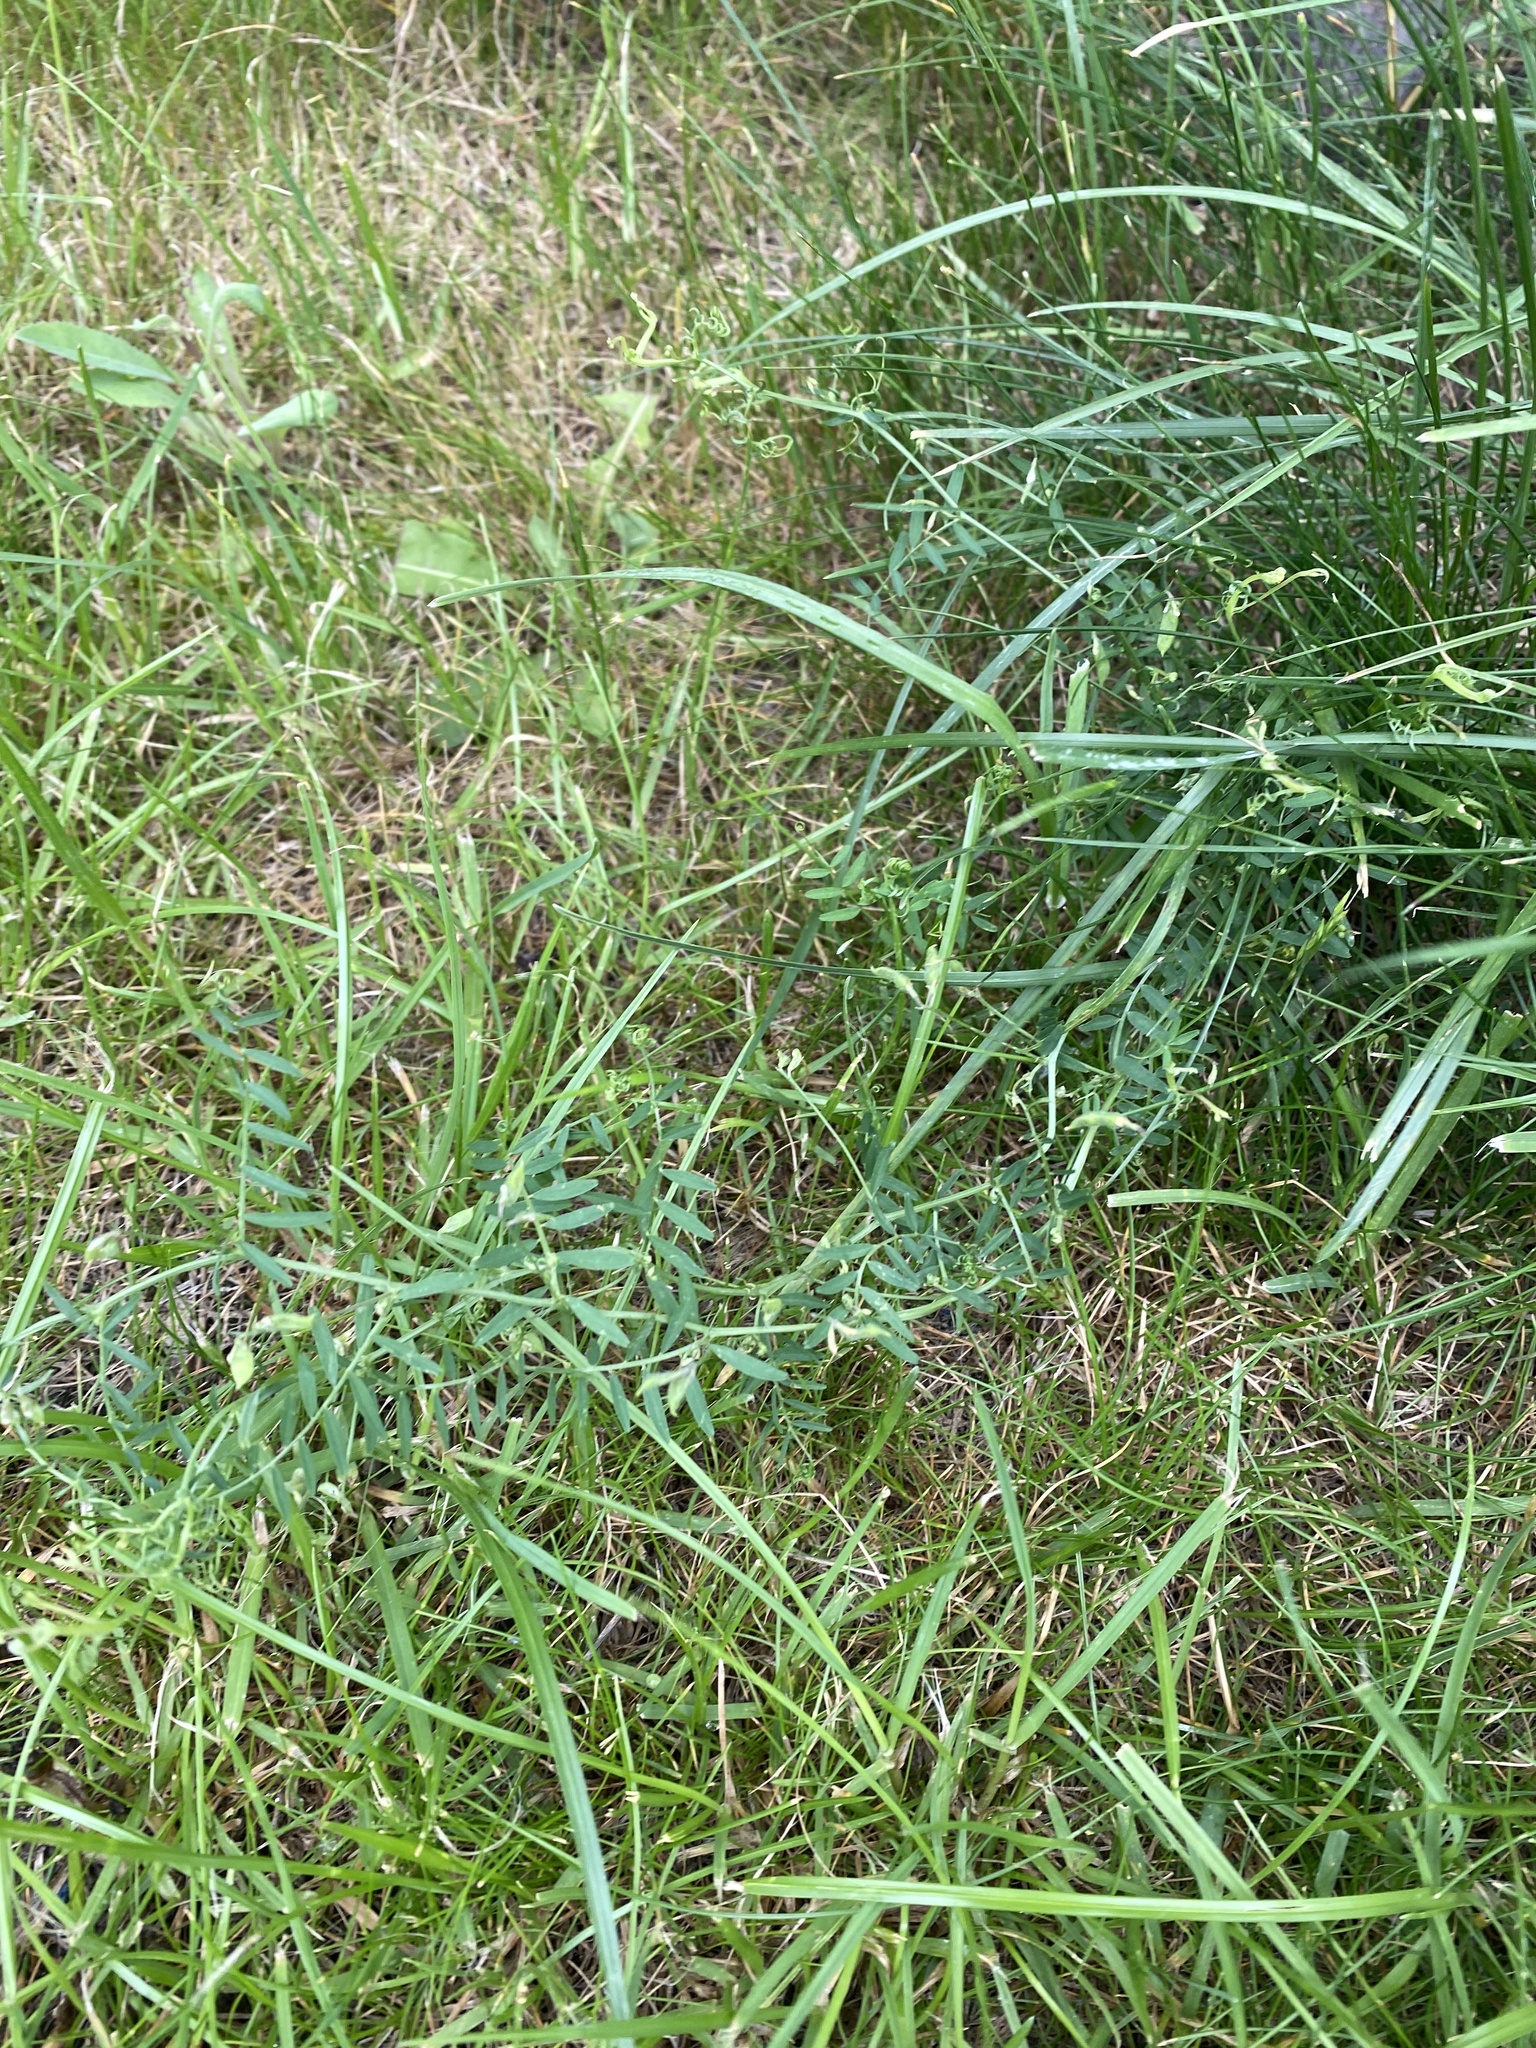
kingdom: Plantae
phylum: Tracheophyta
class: Magnoliopsida
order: Fabales
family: Fabaceae
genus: Vicia
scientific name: Vicia hirsuta
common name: Tiny vetch
